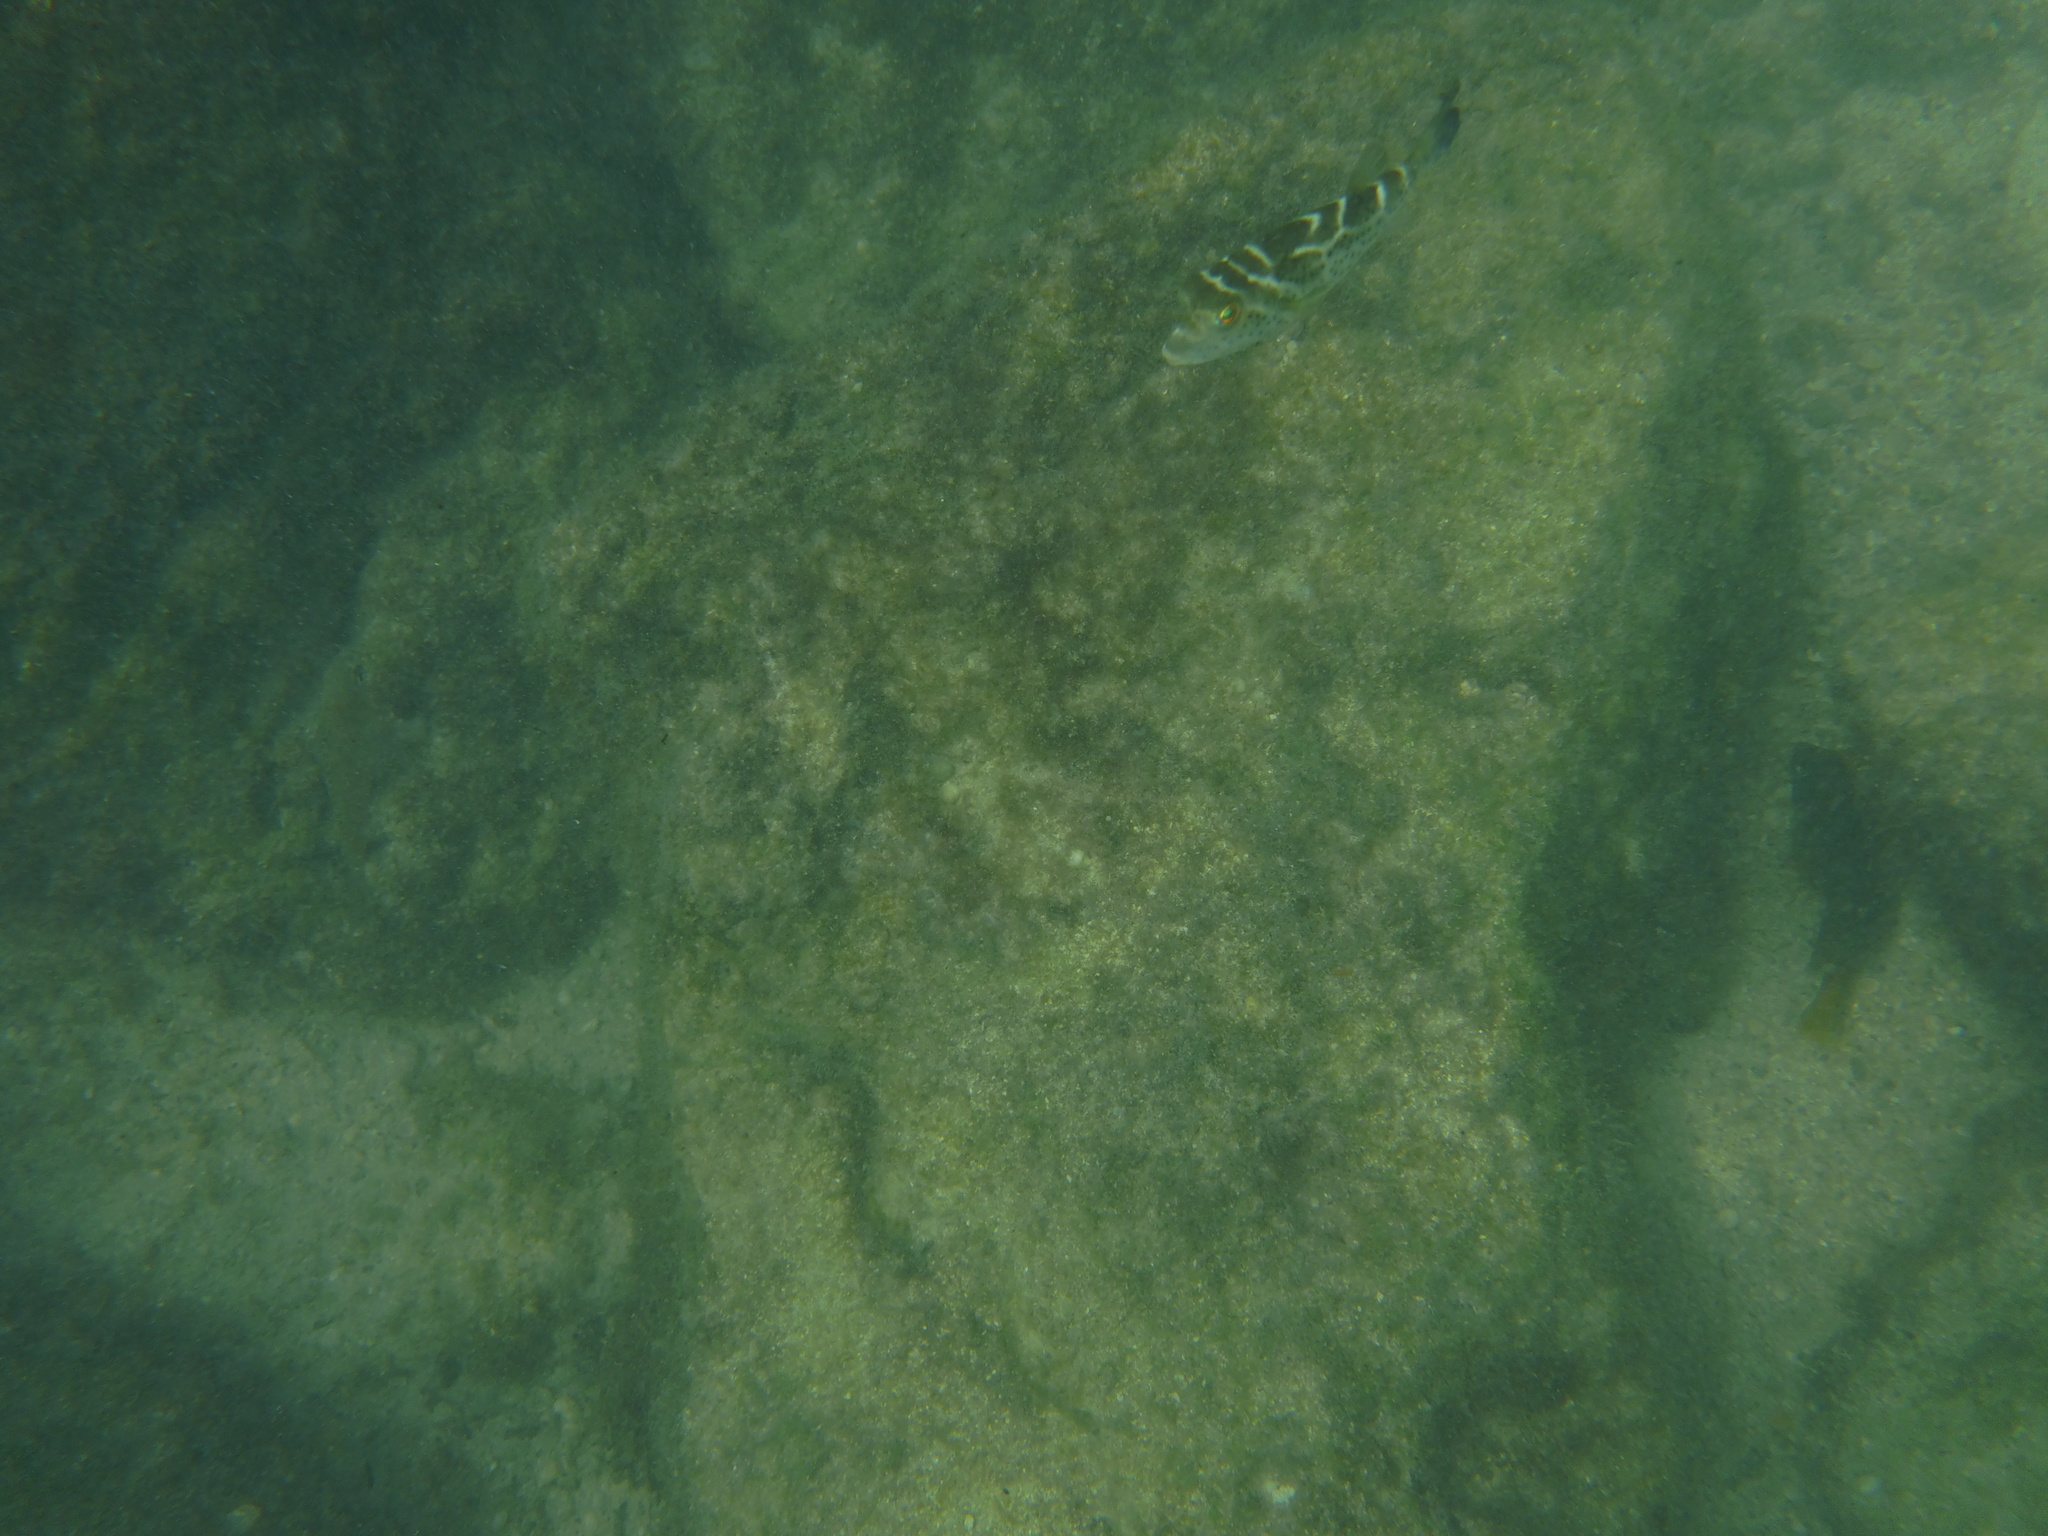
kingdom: Animalia
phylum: Chordata
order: Tetraodontiformes
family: Tetraodontidae
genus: Sphoeroides
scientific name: Sphoeroides annulatus
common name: Bullseye puffer
